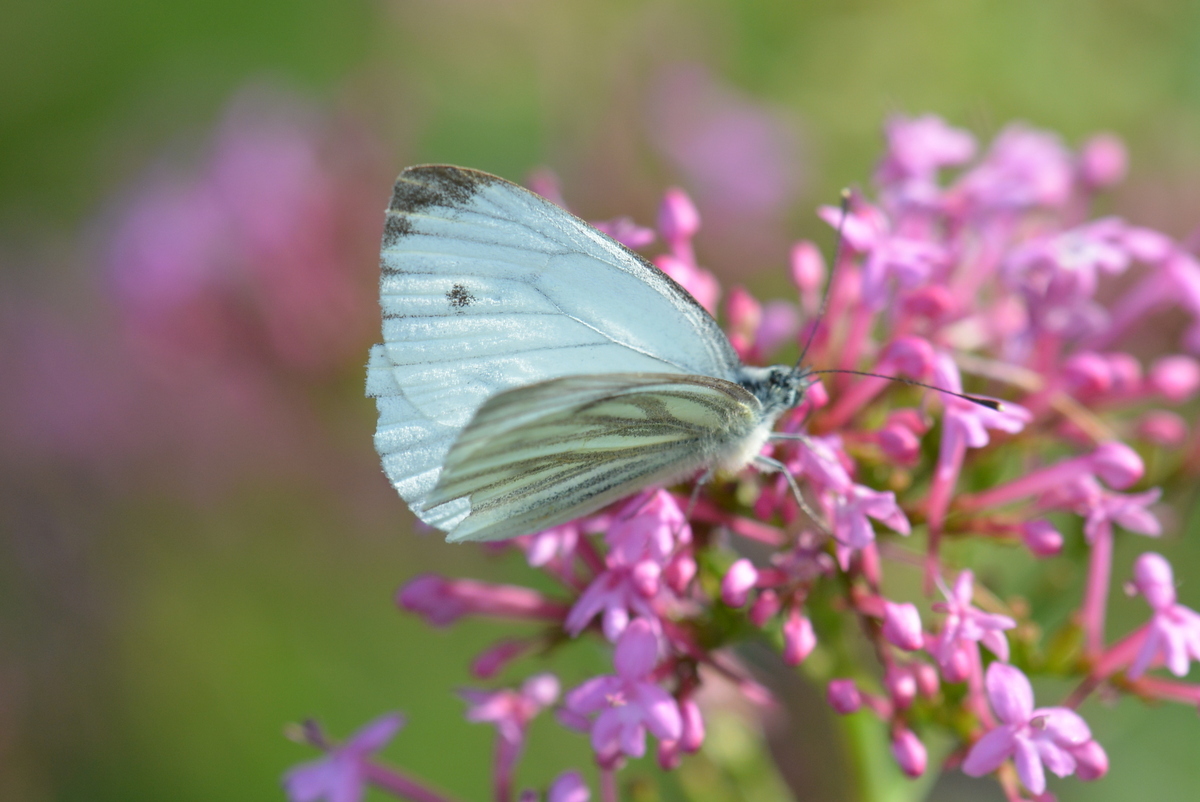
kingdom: Animalia
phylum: Arthropoda
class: Insecta
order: Lepidoptera
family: Pieridae
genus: Pieris
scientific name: Pieris napi
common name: Green-veined white
